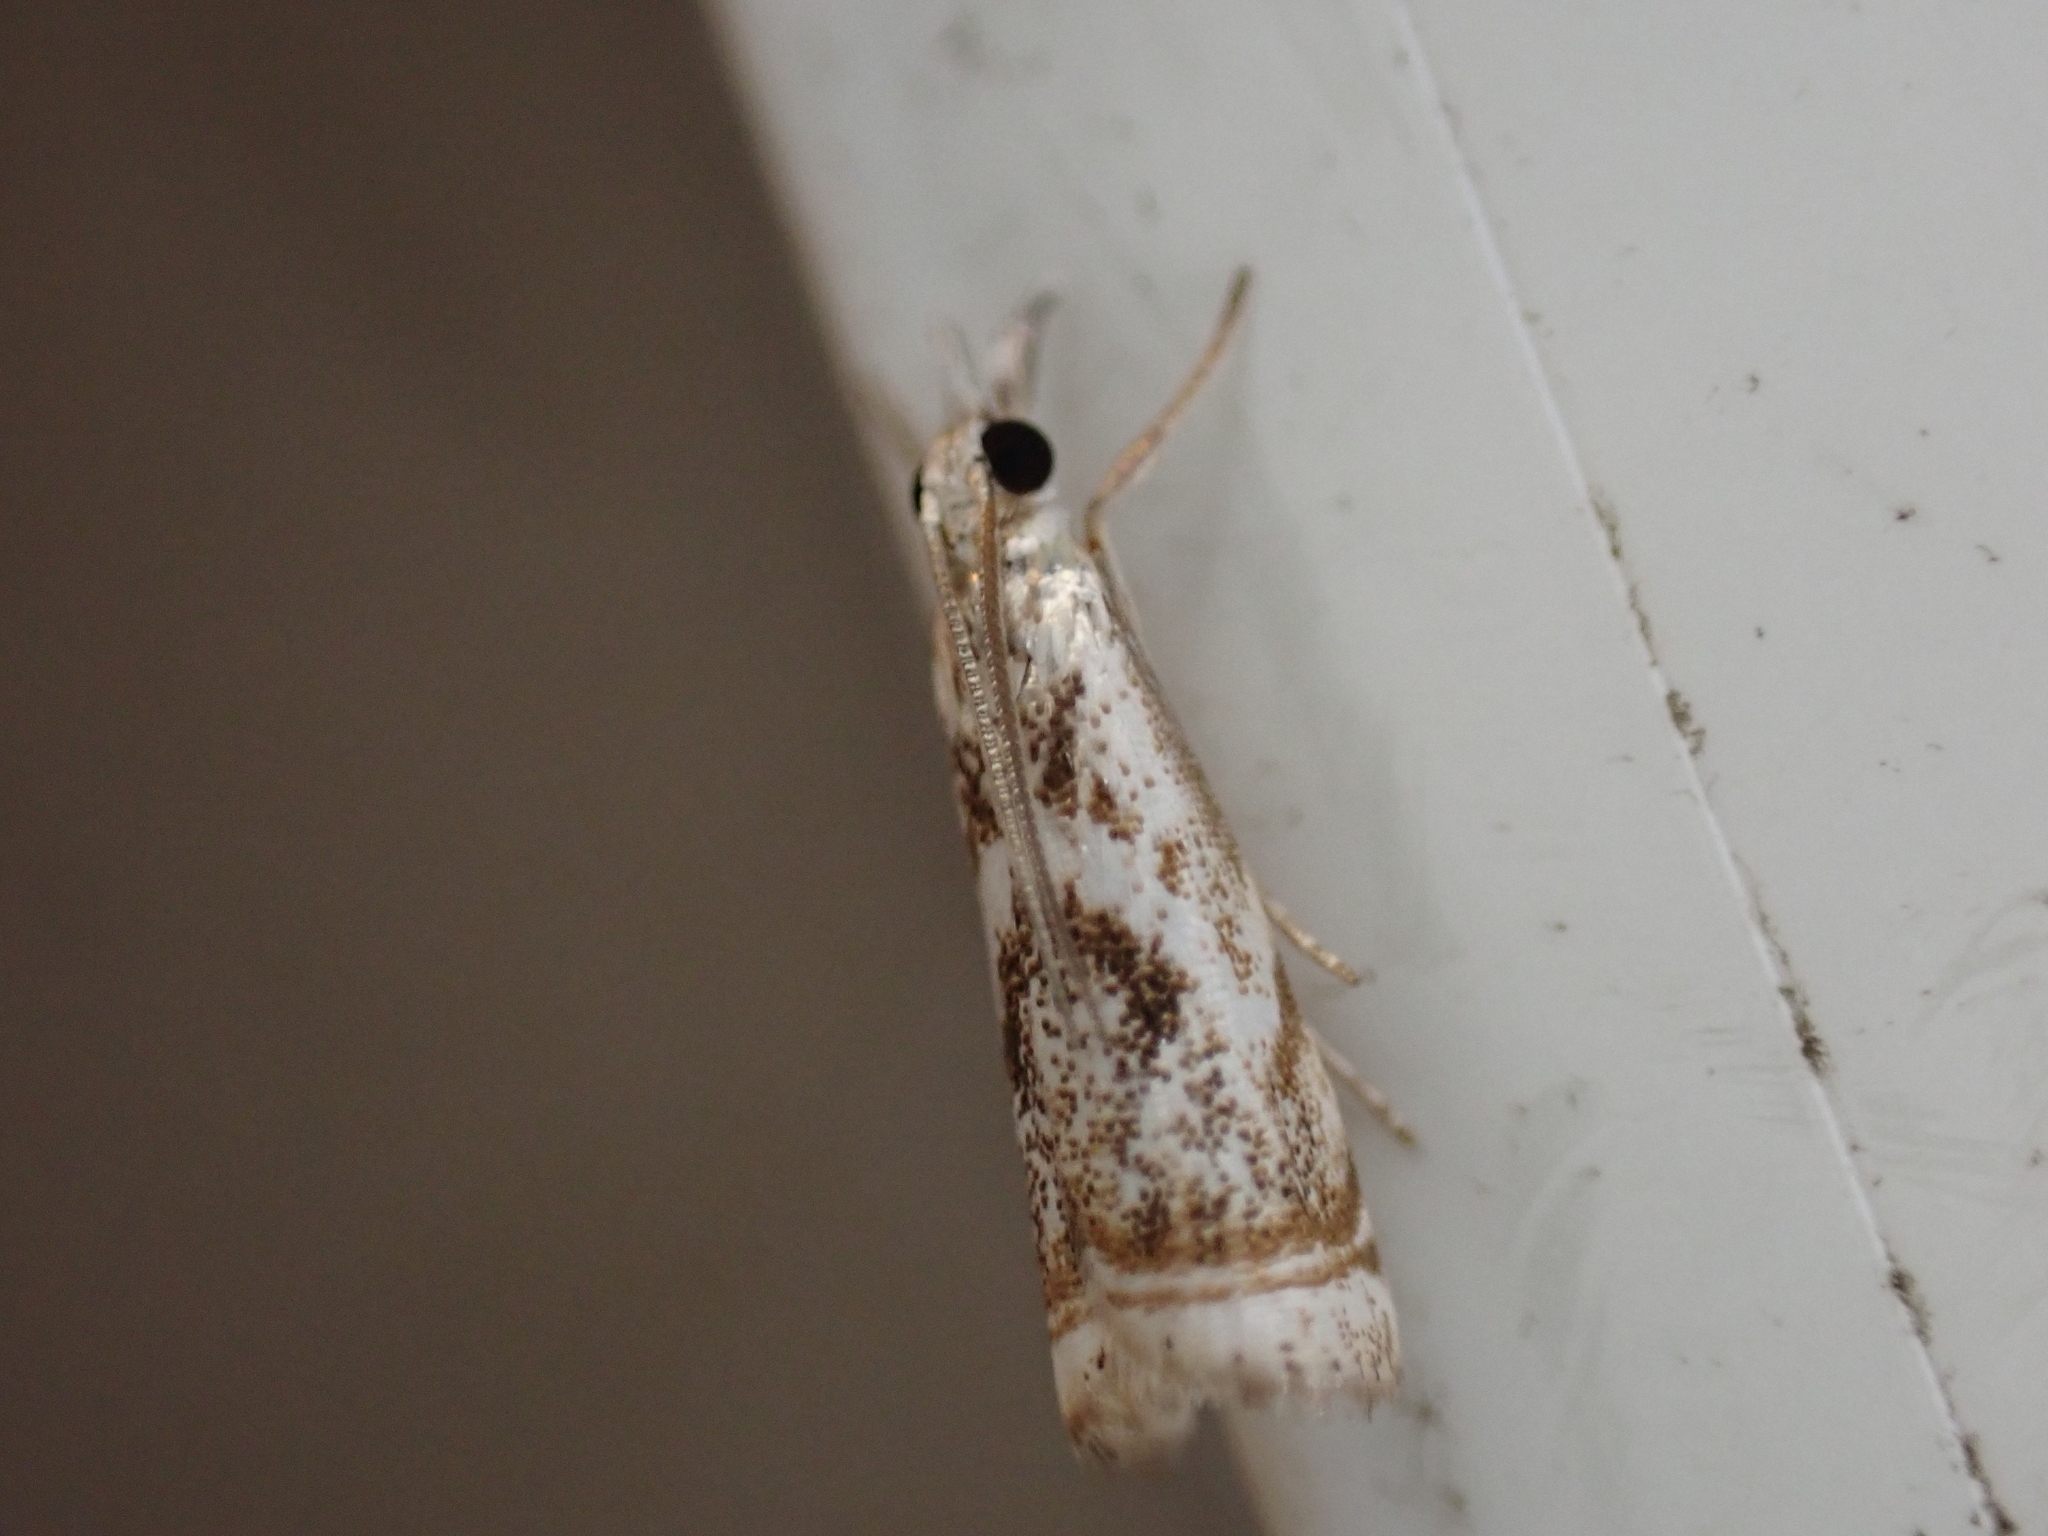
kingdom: Animalia
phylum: Arthropoda
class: Insecta
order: Lepidoptera
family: Crambidae
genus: Microcrambus
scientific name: Microcrambus elegans
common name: Elegant grass-veneer
